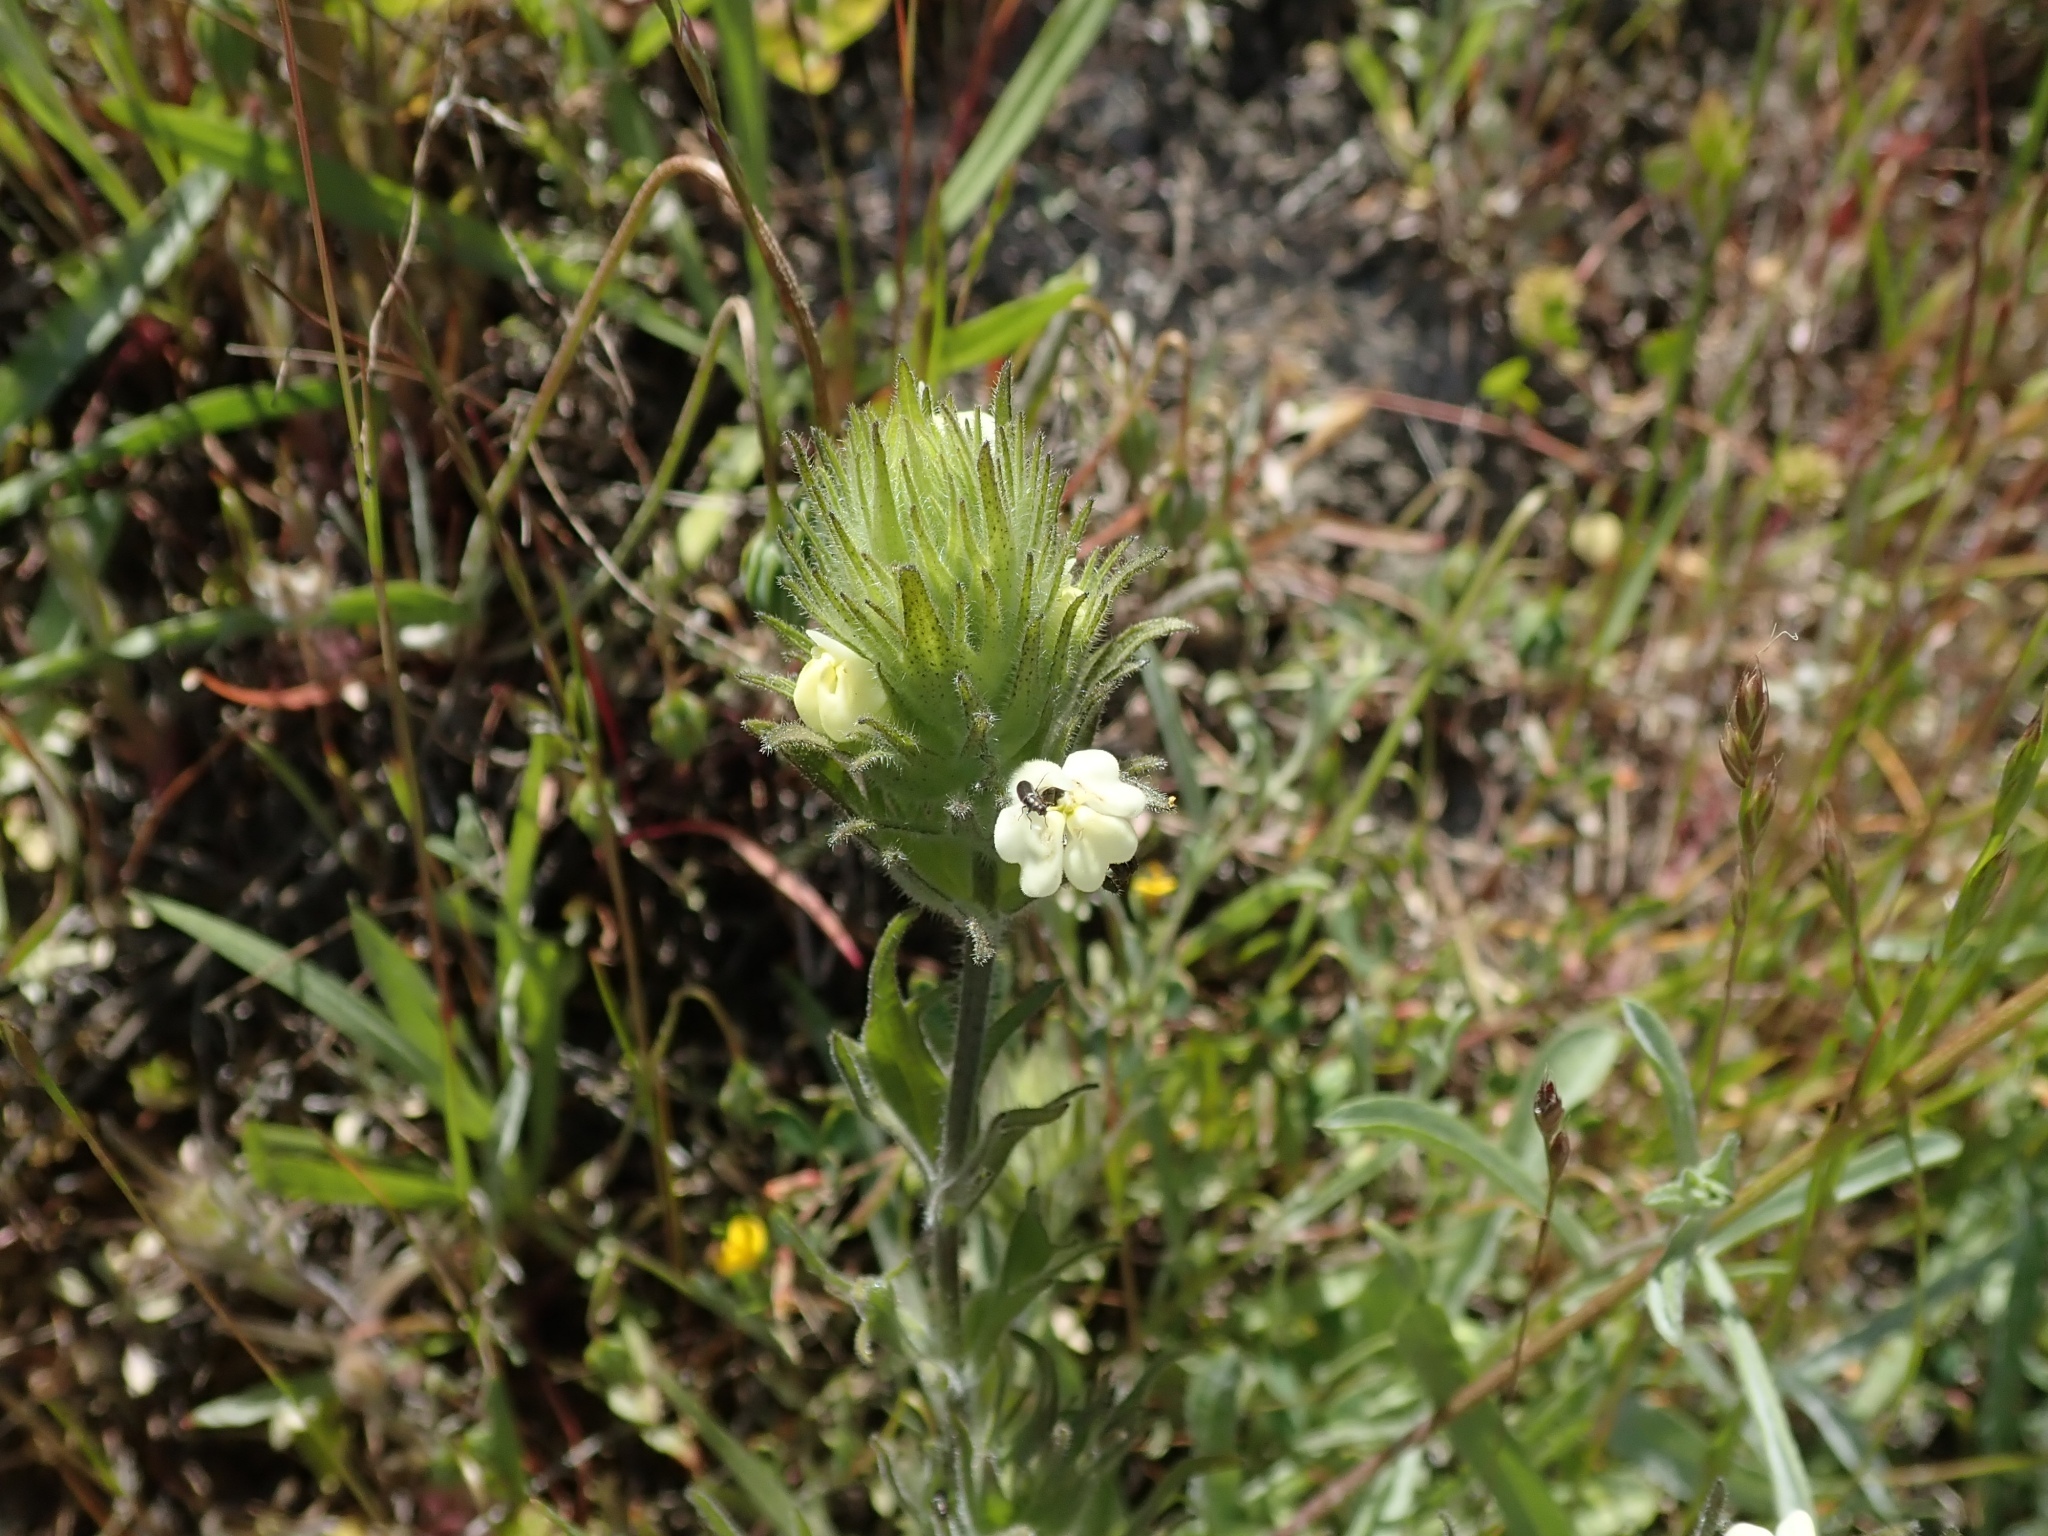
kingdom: Plantae
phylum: Tracheophyta
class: Magnoliopsida
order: Lamiales
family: Orobanchaceae
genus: Castilleja
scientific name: Castilleja rubicundula
